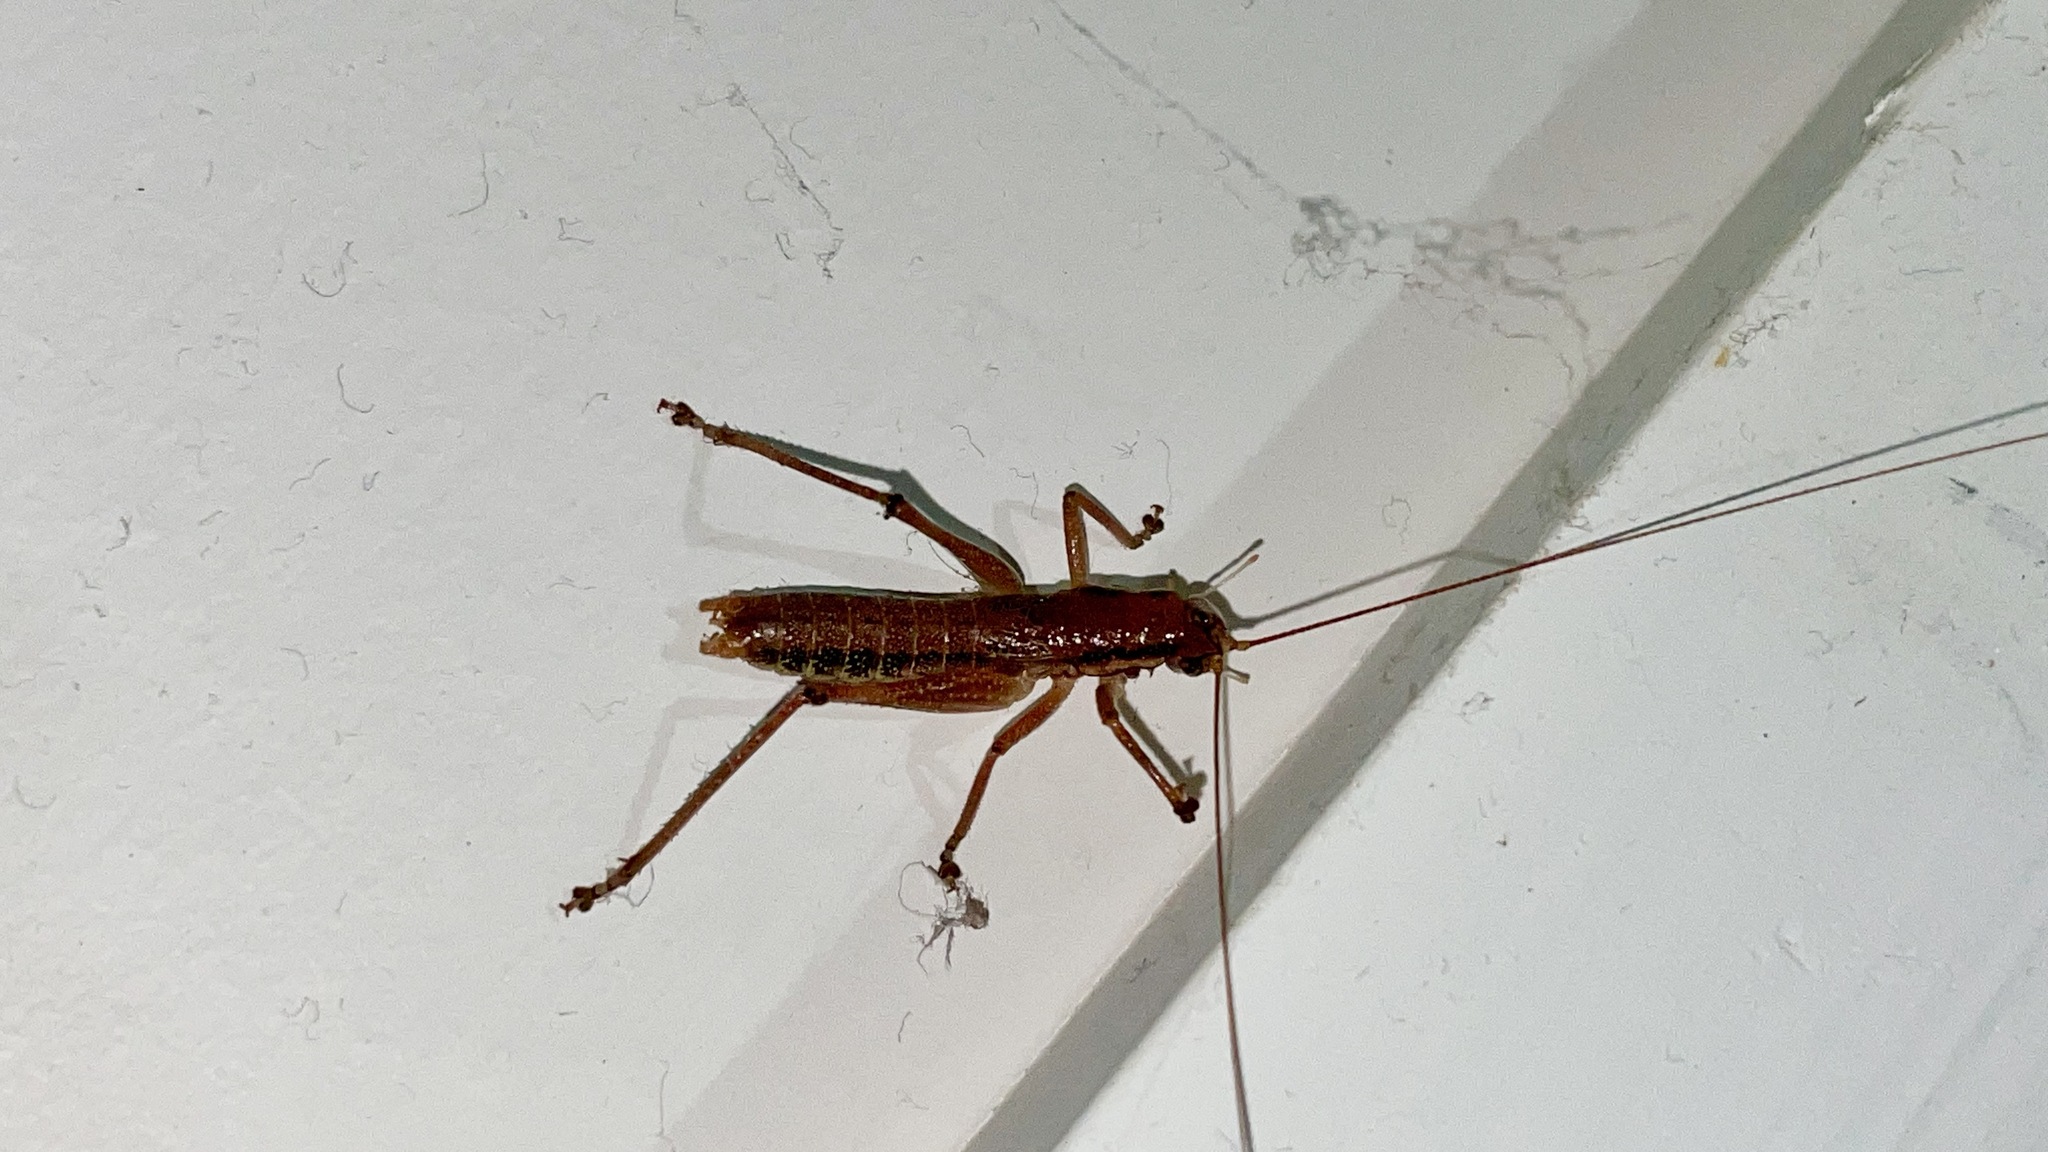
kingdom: Animalia
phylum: Arthropoda
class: Insecta
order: Orthoptera
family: Tettigoniidae
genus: Coptaspis
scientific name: Coptaspis brevipennis
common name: Sidney woodland katydid
